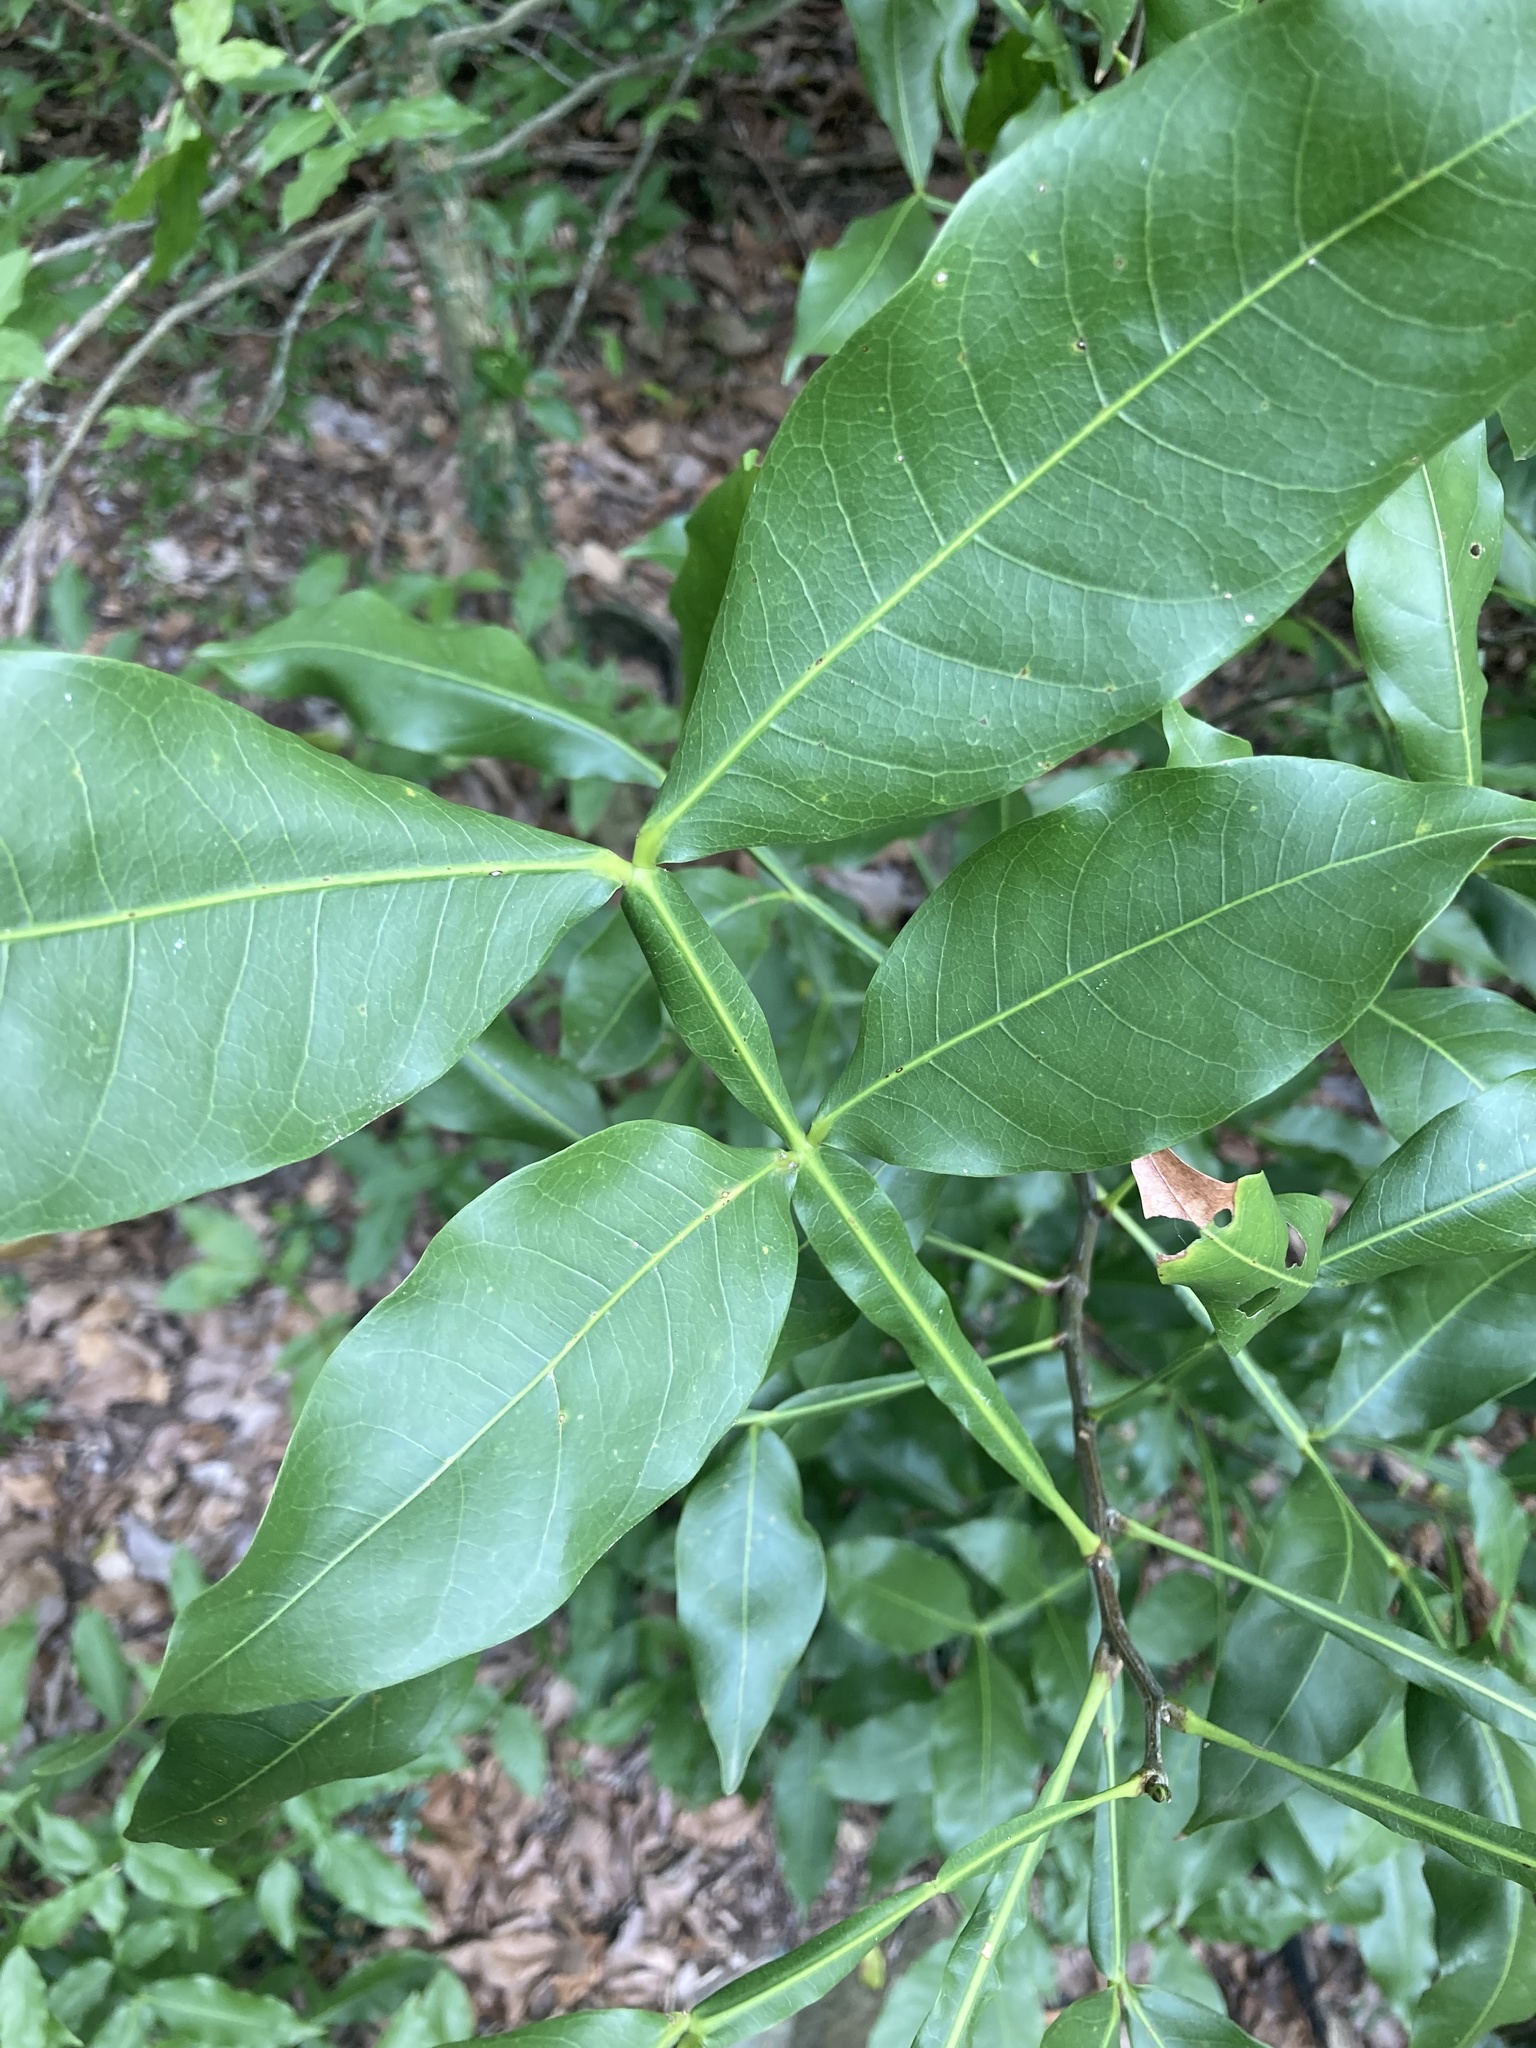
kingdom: Plantae
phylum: Tracheophyta
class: Magnoliopsida
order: Sapindales
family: Sapindaceae
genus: Melicoccus
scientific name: Melicoccus bijugatus
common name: Spanish lime
